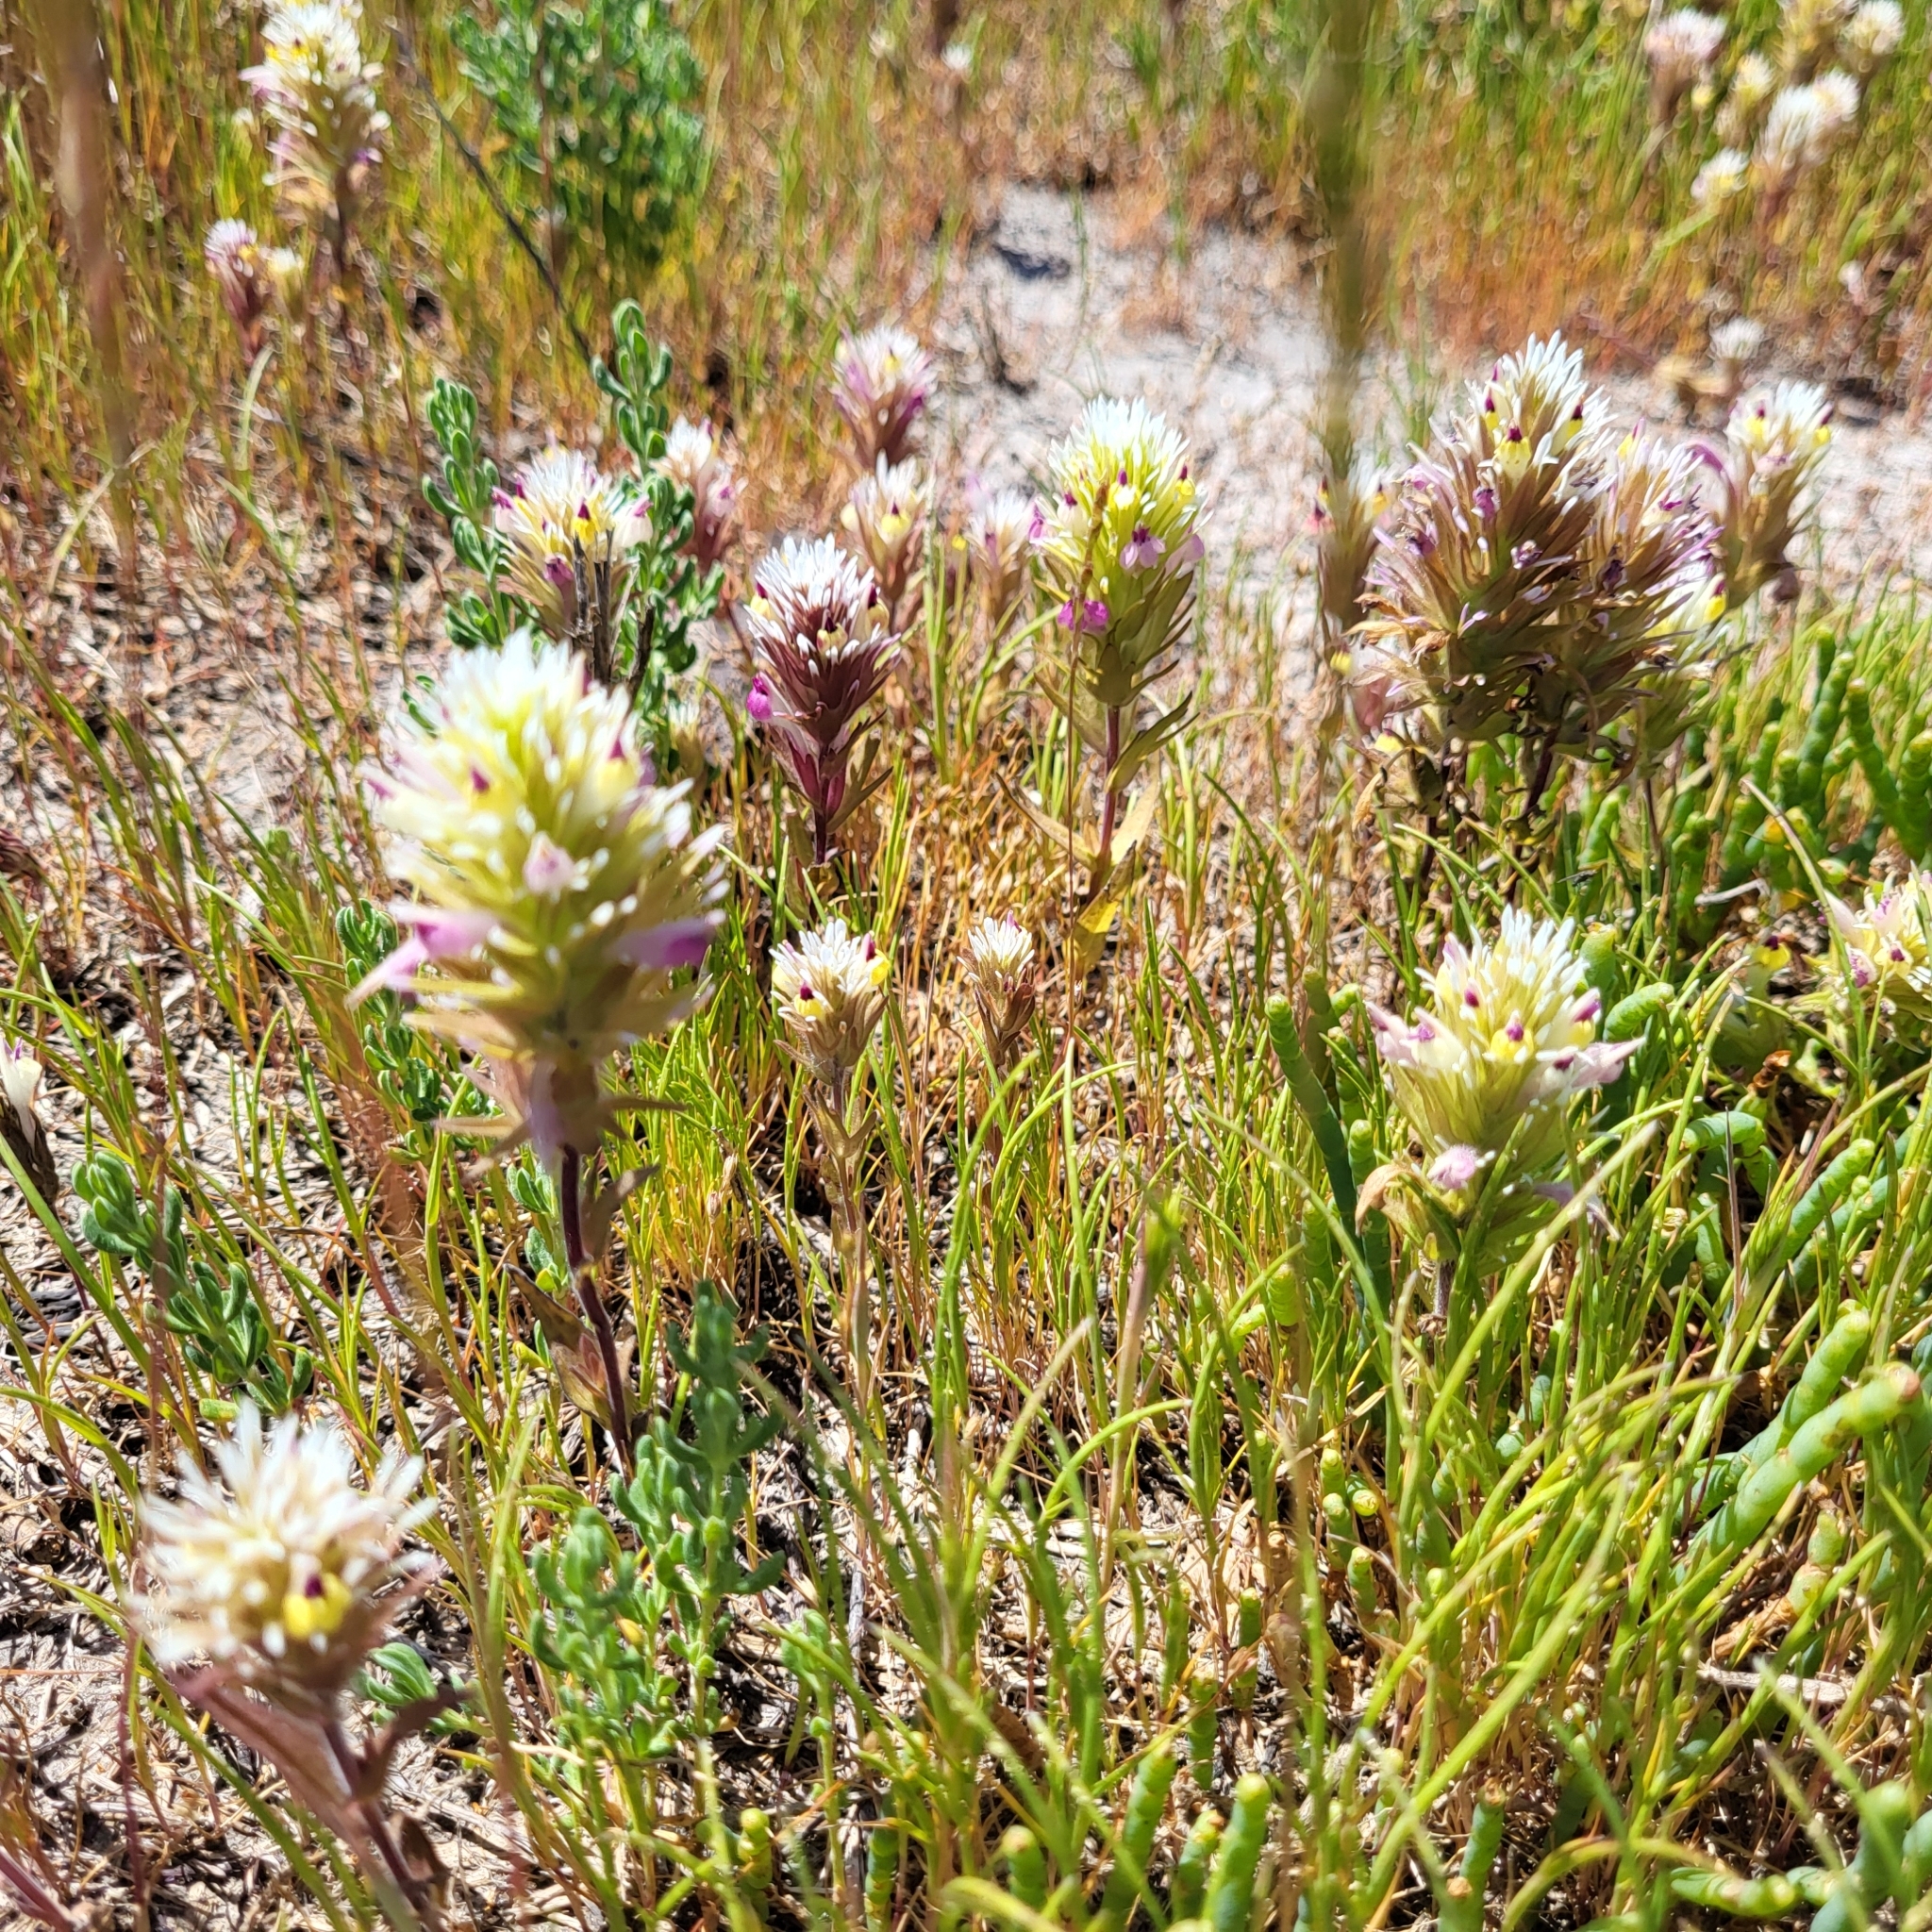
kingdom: Plantae
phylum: Tracheophyta
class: Magnoliopsida
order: Lamiales
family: Orobanchaceae
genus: Castilleja
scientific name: Castilleja ambigua
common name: Johnny-nip
